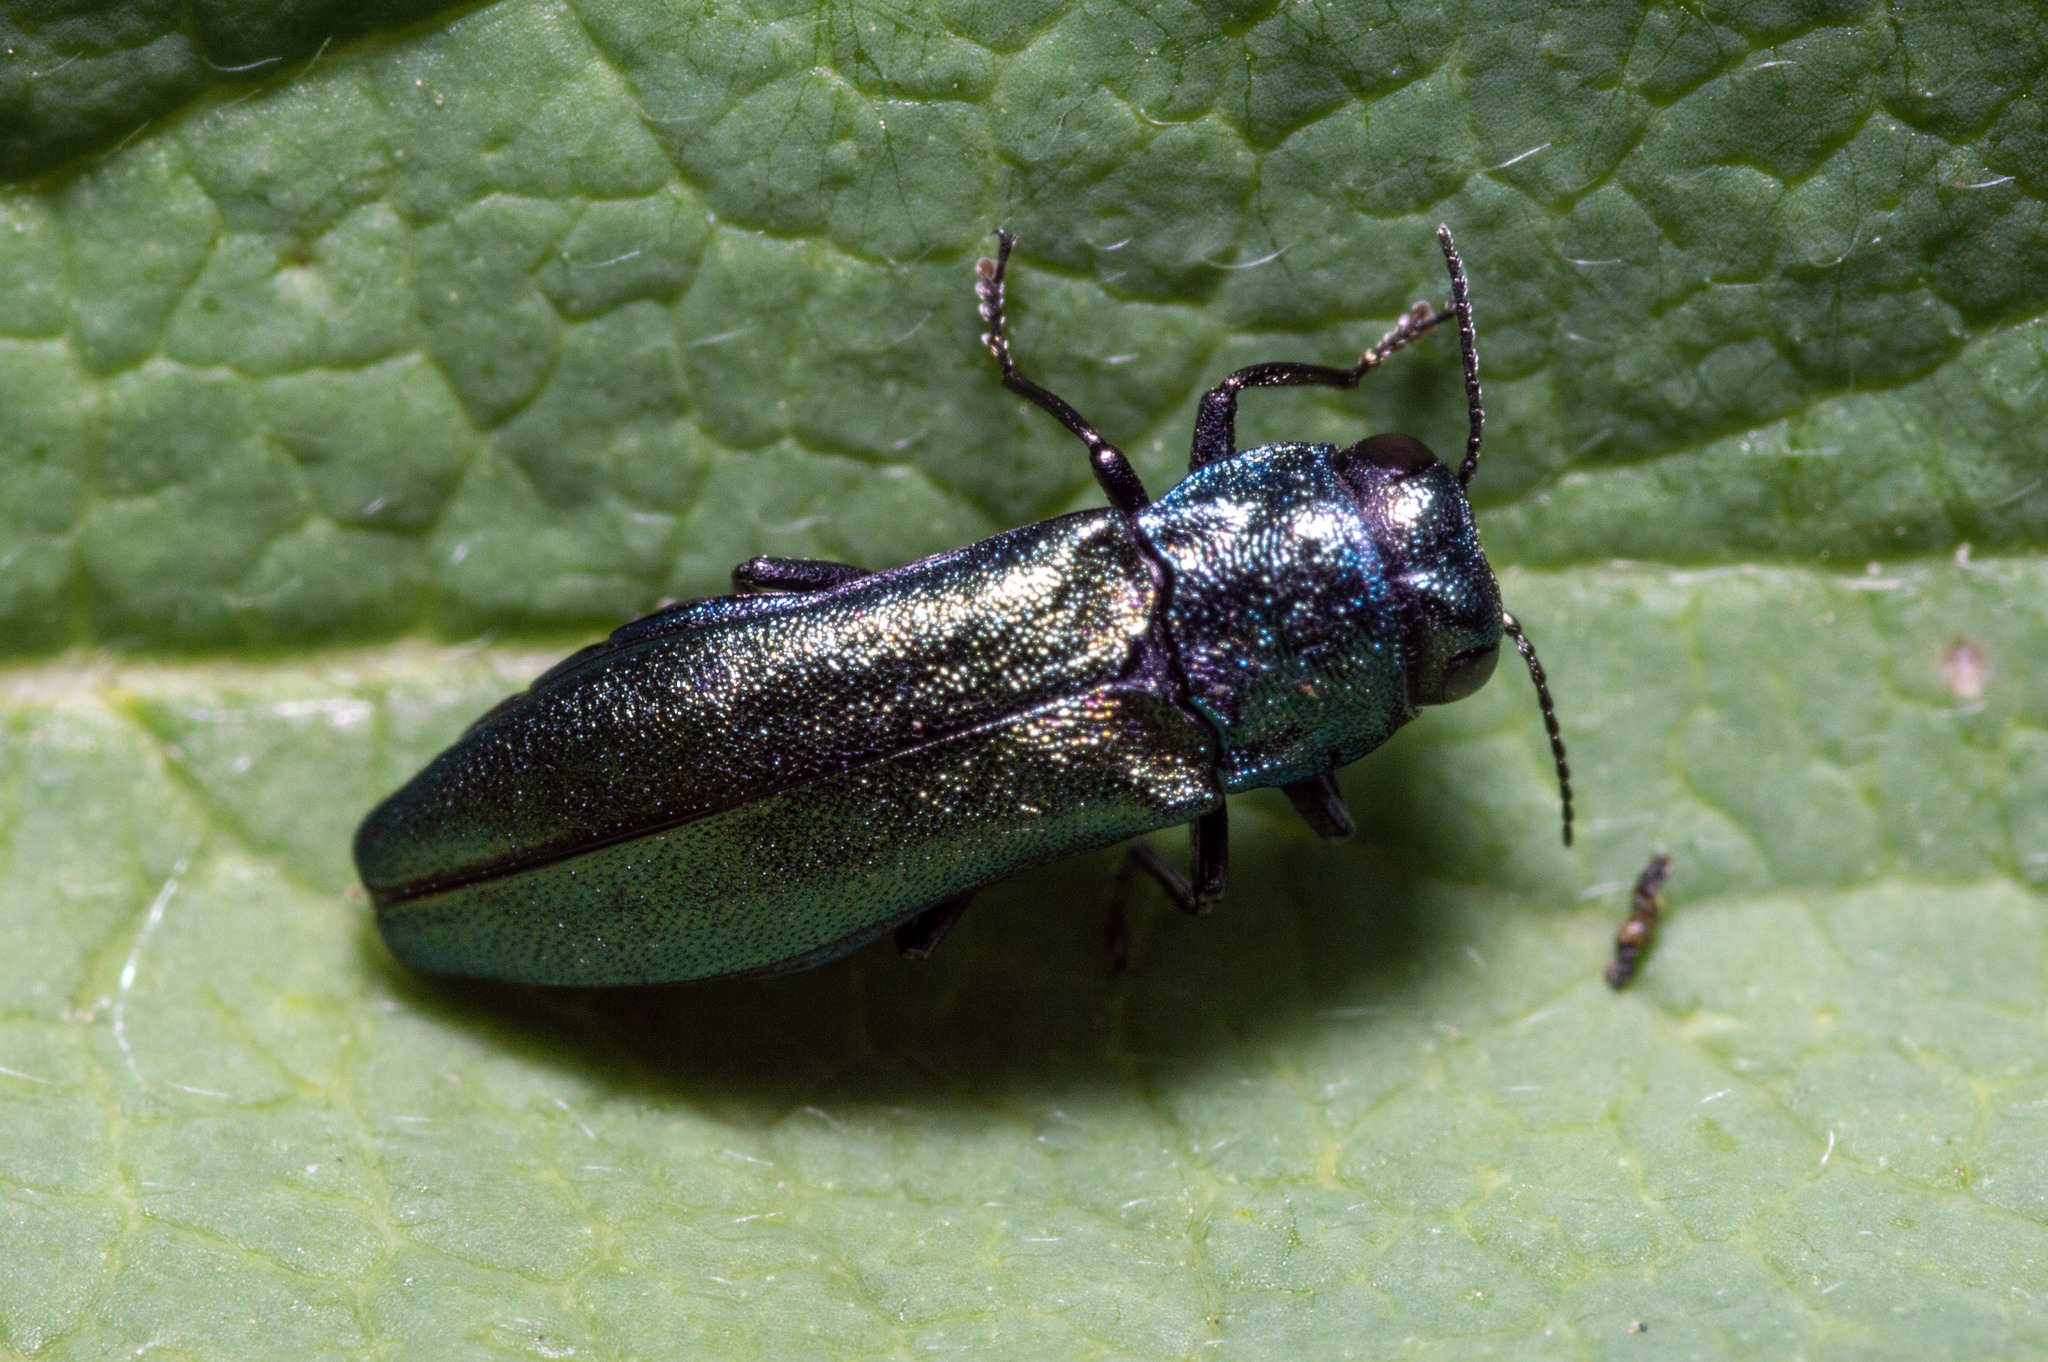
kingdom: Animalia
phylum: Arthropoda
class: Insecta
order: Coleoptera
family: Buprestidae
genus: Agrilus
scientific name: Agrilus cyanescens
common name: Bluish borer beetle
